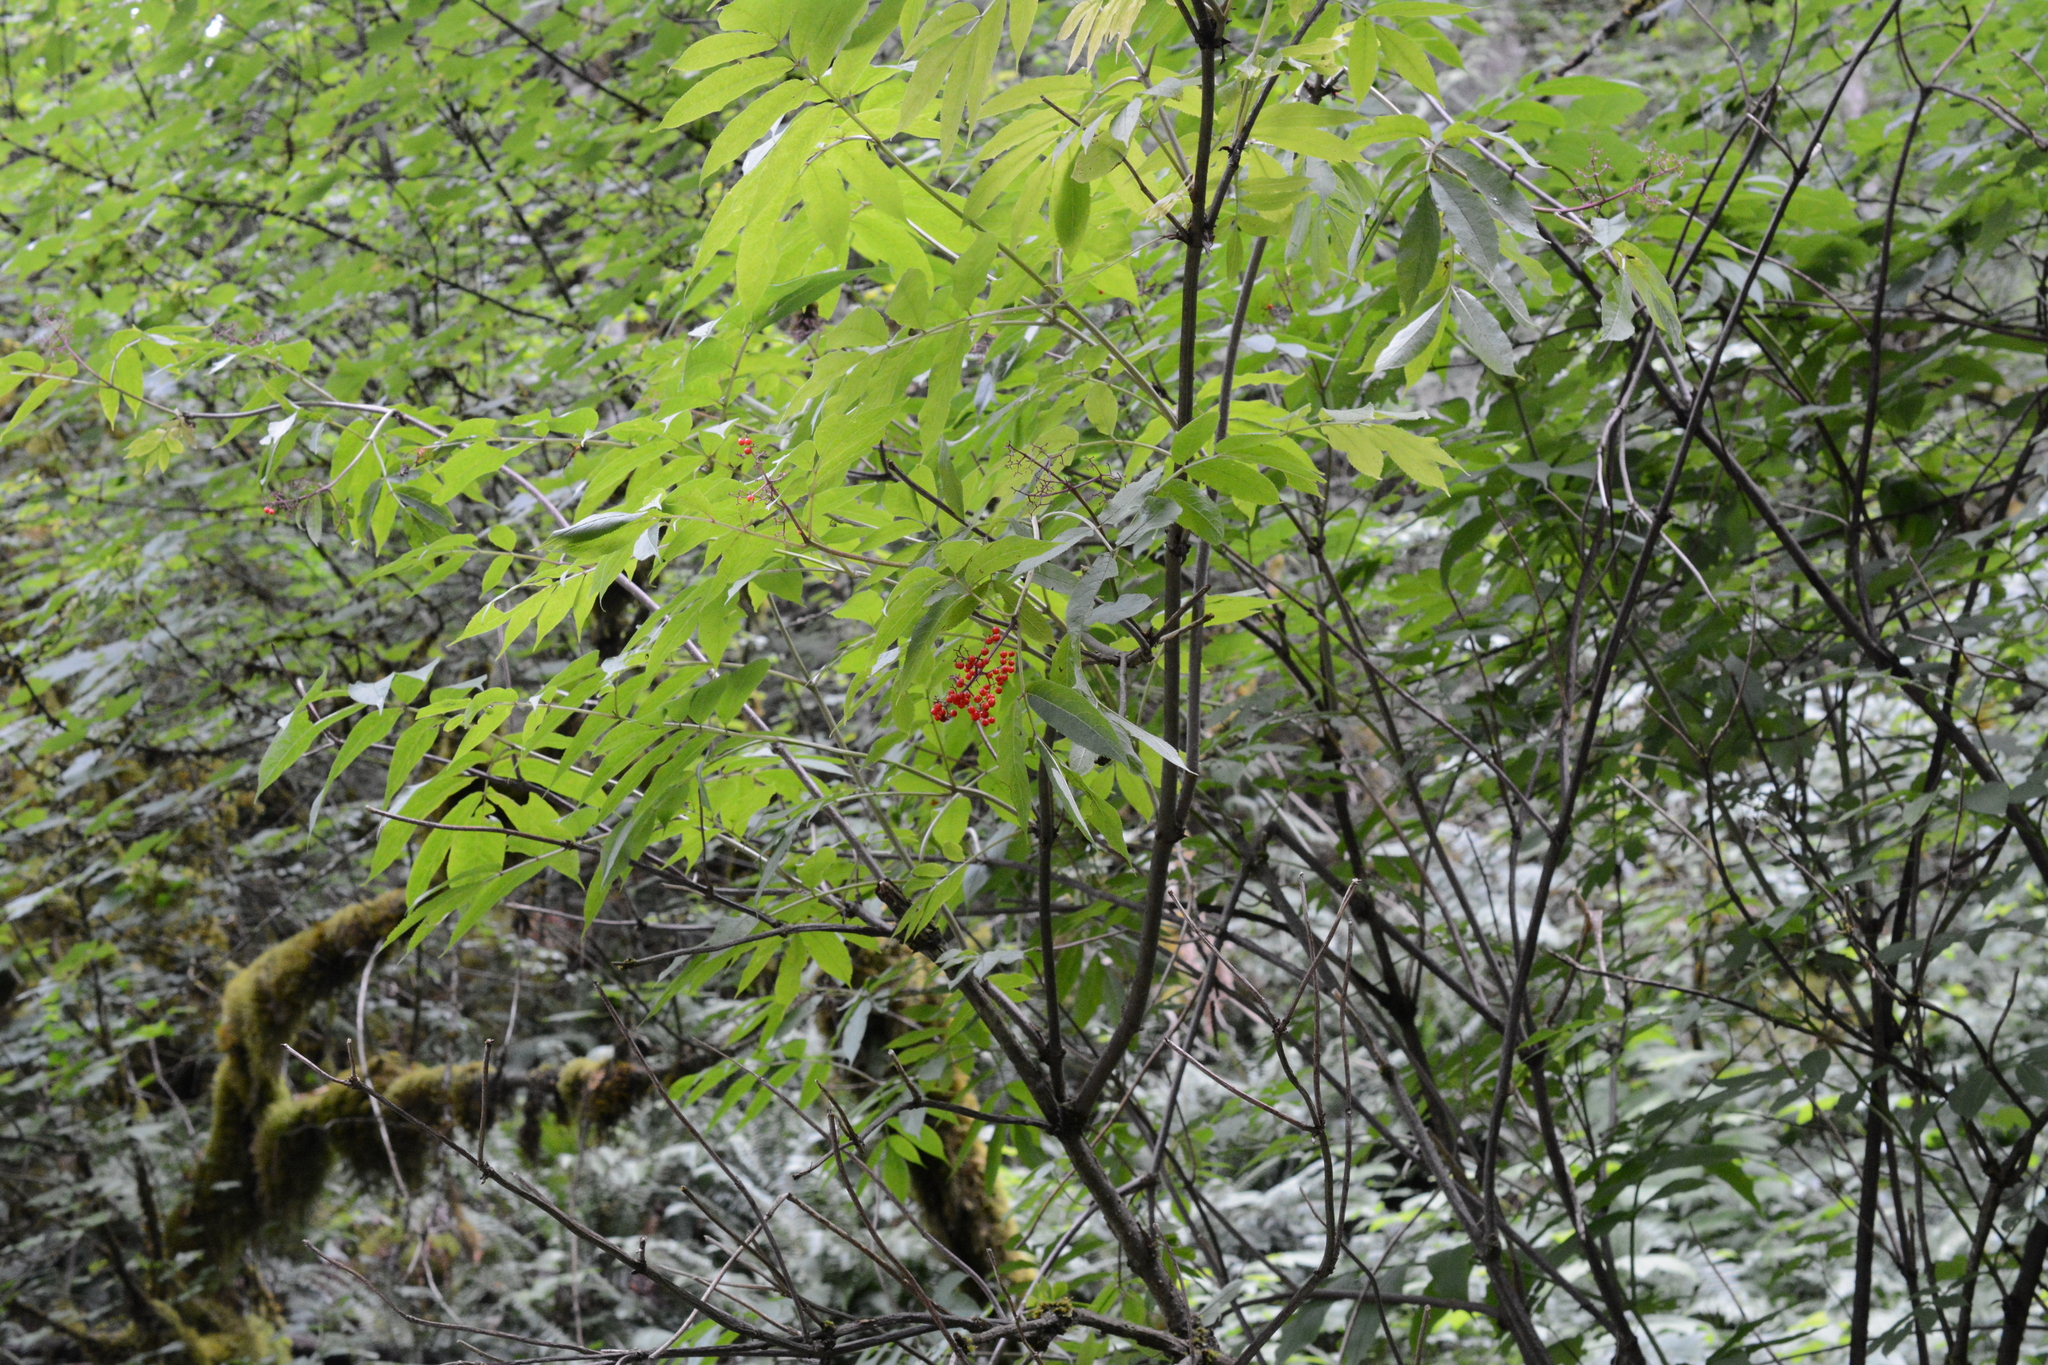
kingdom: Plantae
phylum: Tracheophyta
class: Magnoliopsida
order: Dipsacales
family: Viburnaceae
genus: Sambucus
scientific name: Sambucus racemosa
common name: Red-berried elder
